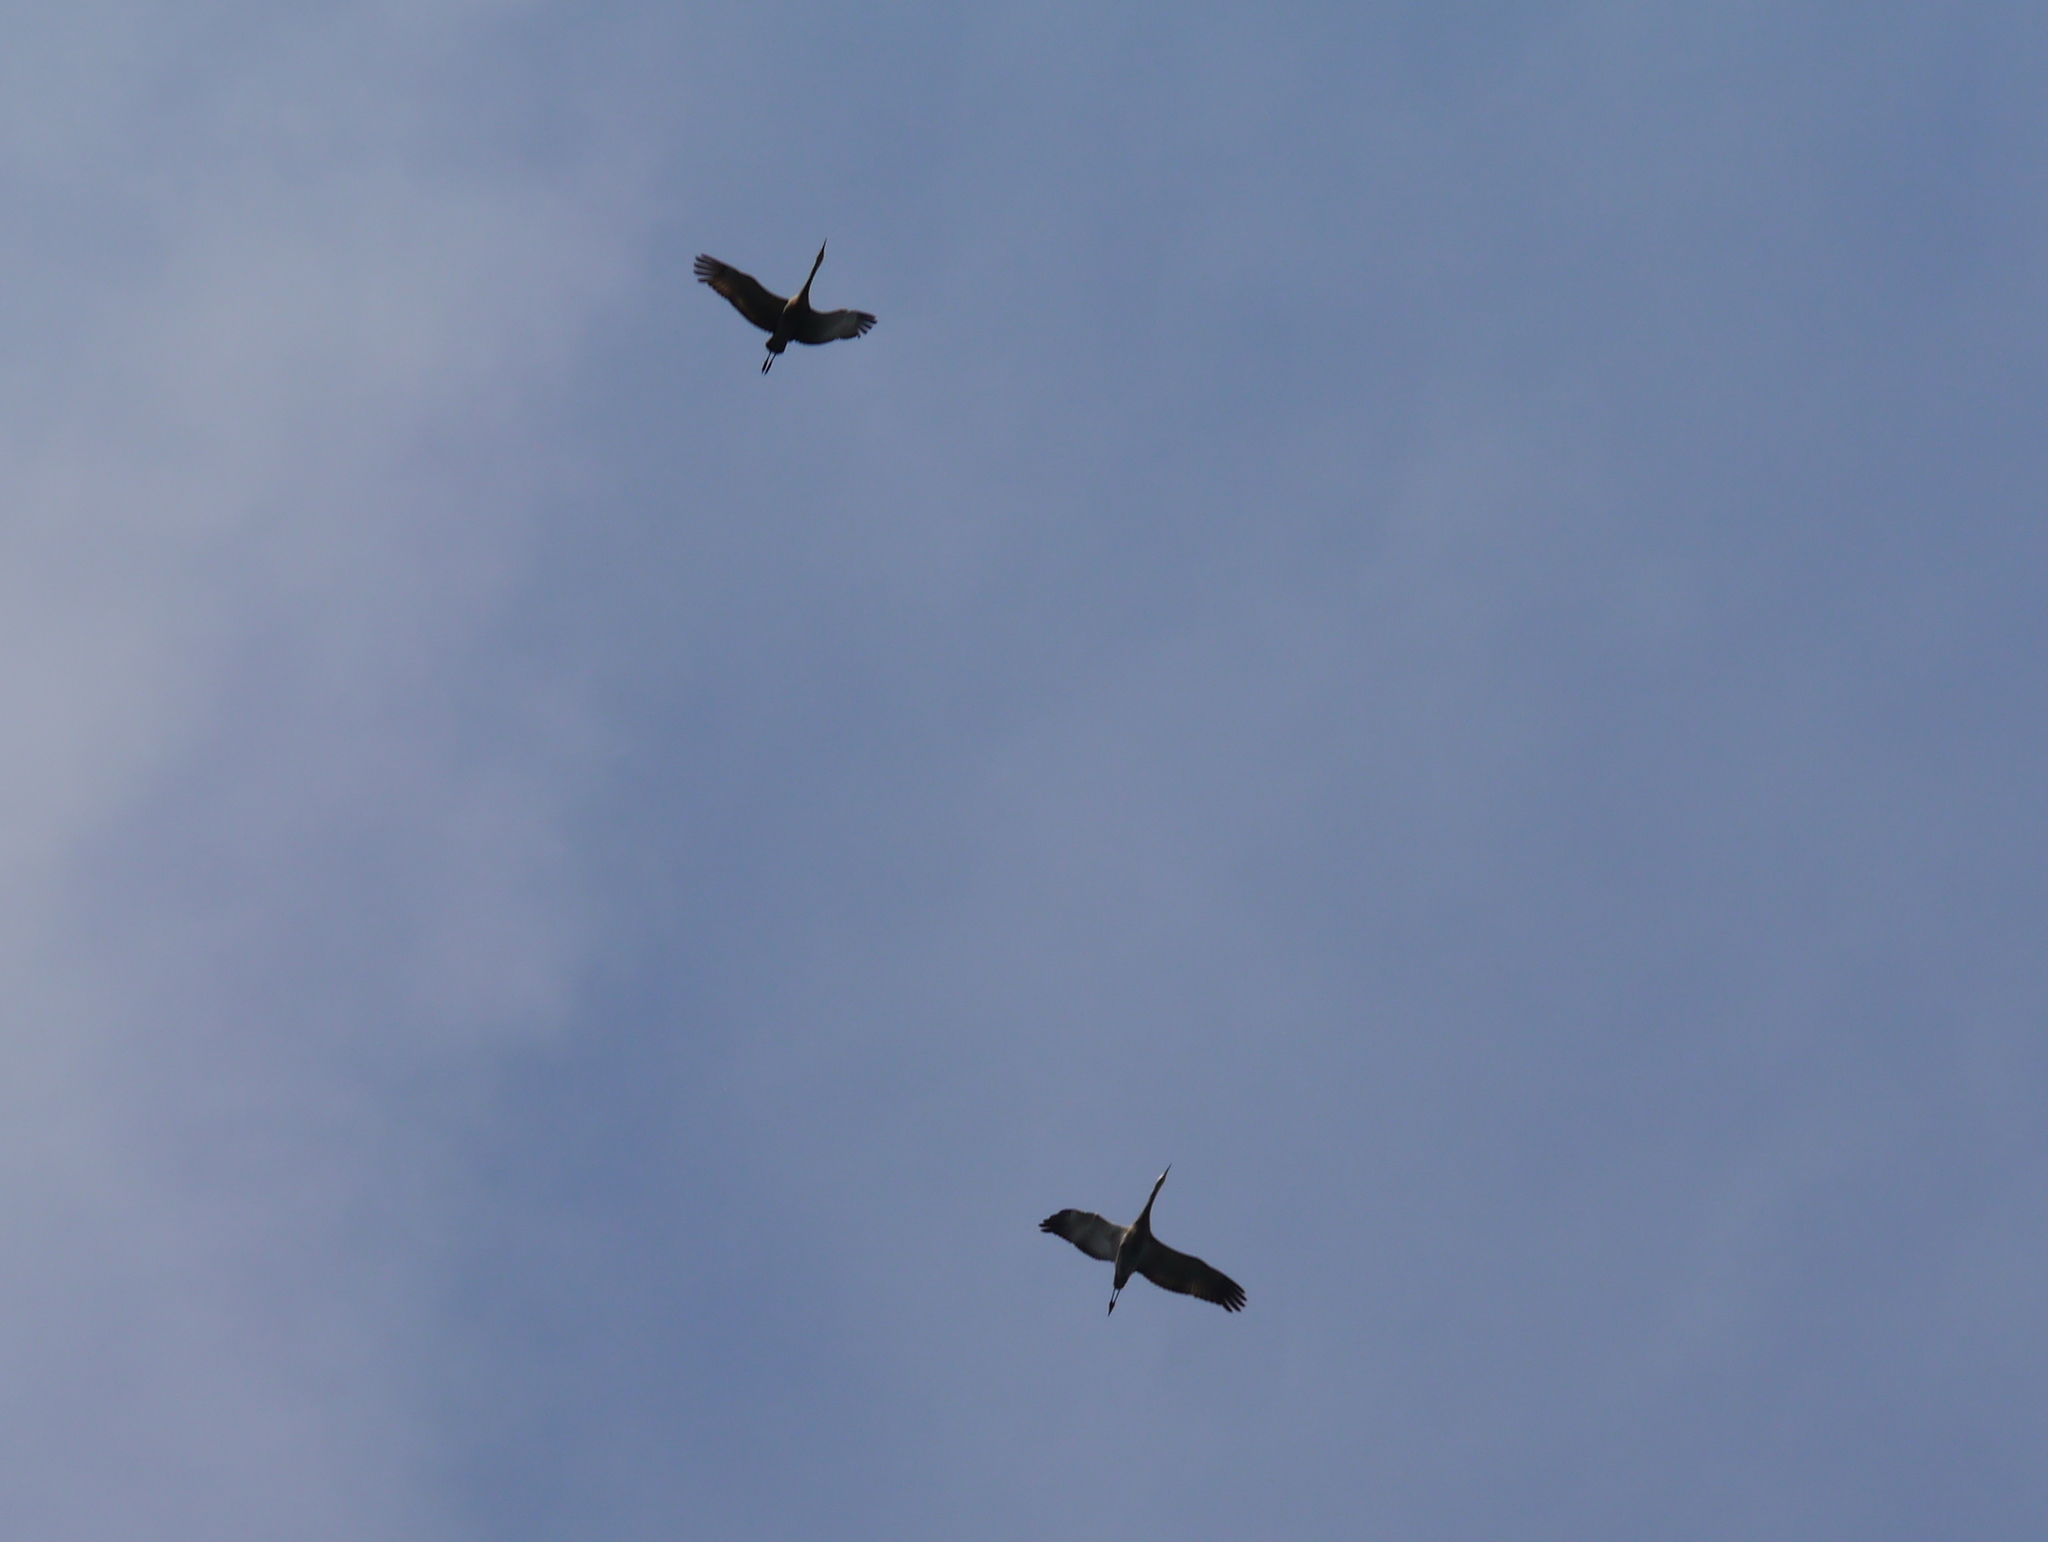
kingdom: Animalia
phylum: Chordata
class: Aves
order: Gruiformes
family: Gruidae
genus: Grus
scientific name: Grus canadensis
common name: Sandhill crane
